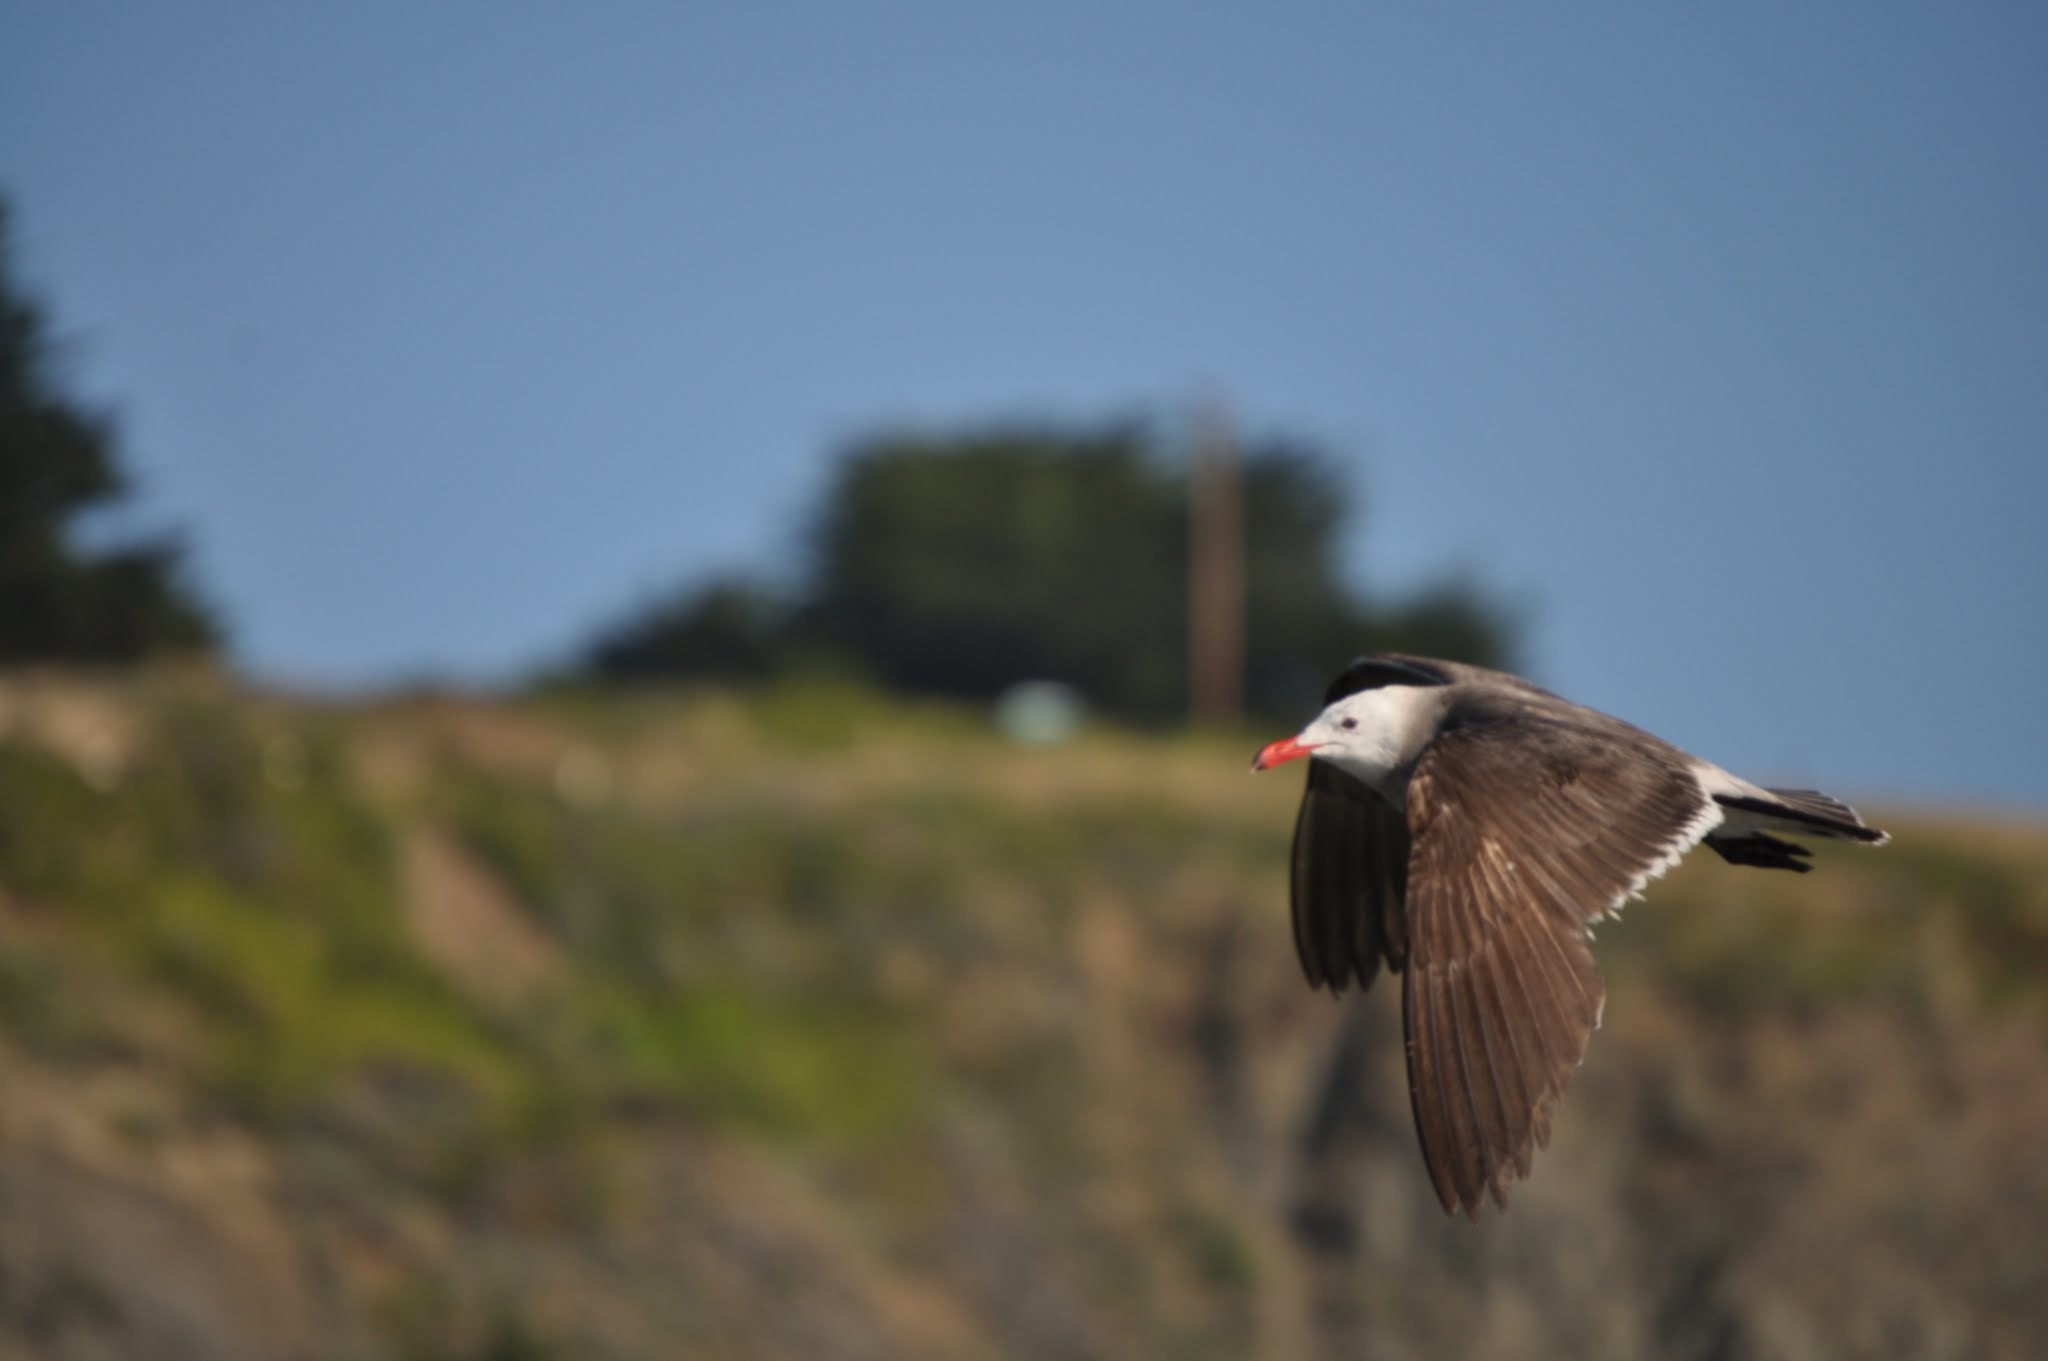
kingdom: Animalia
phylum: Chordata
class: Aves
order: Charadriiformes
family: Laridae
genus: Larus
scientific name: Larus heermanni
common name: Heermann's gull
